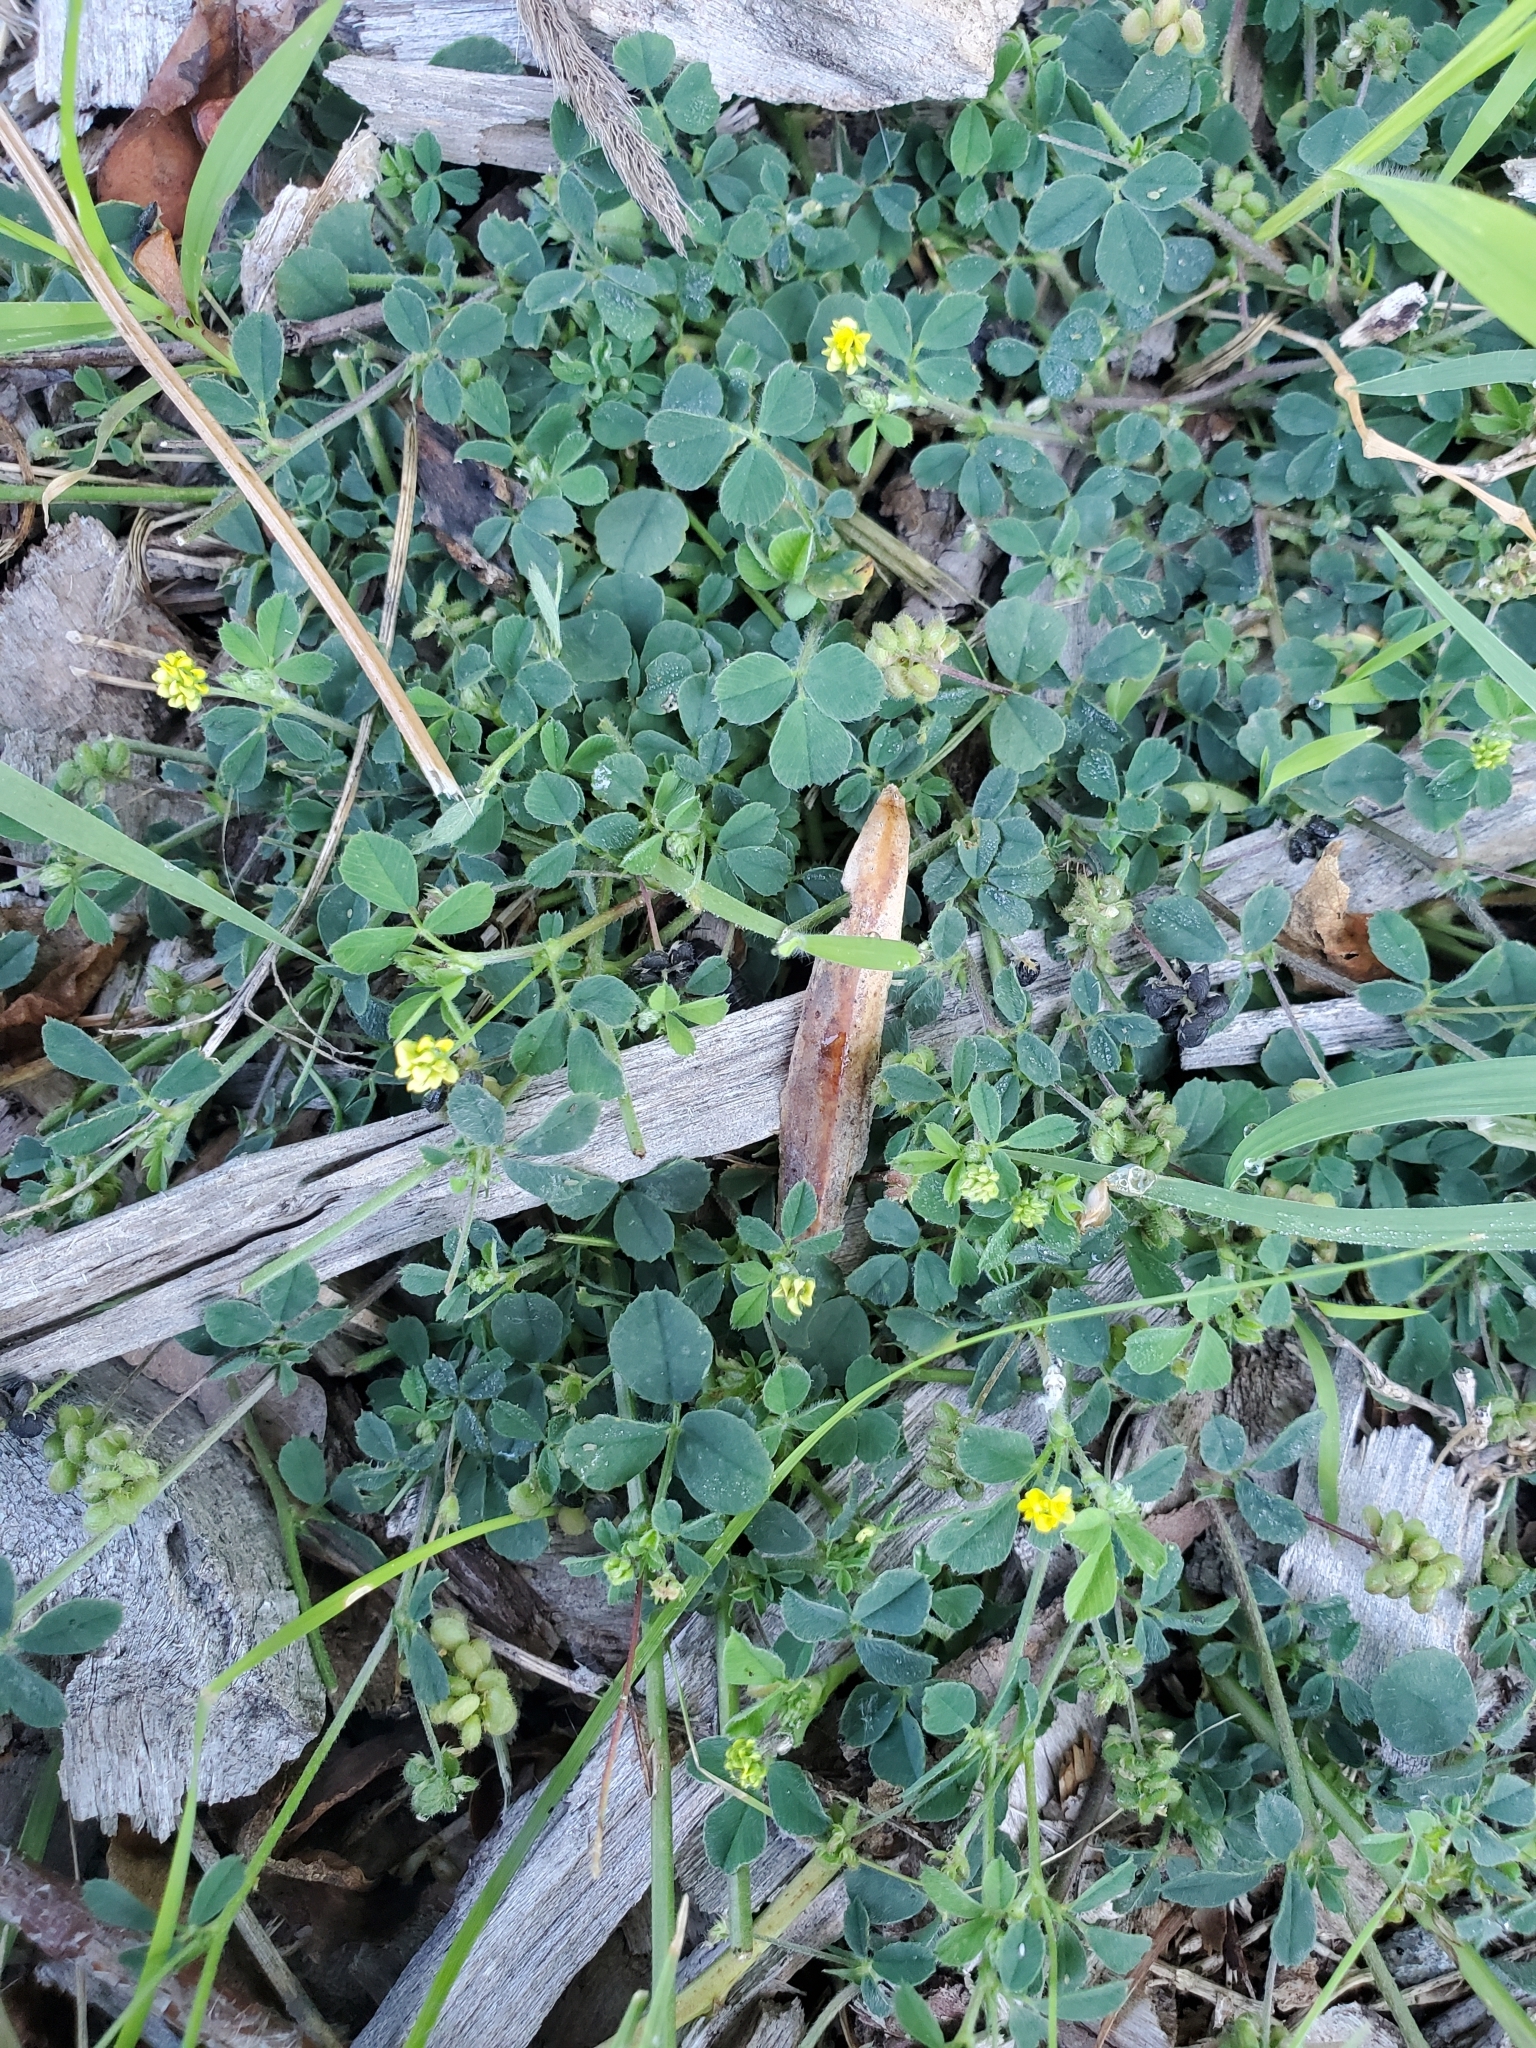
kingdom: Plantae
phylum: Tracheophyta
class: Magnoliopsida
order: Fabales
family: Fabaceae
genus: Medicago
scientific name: Medicago lupulina
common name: Black medick
